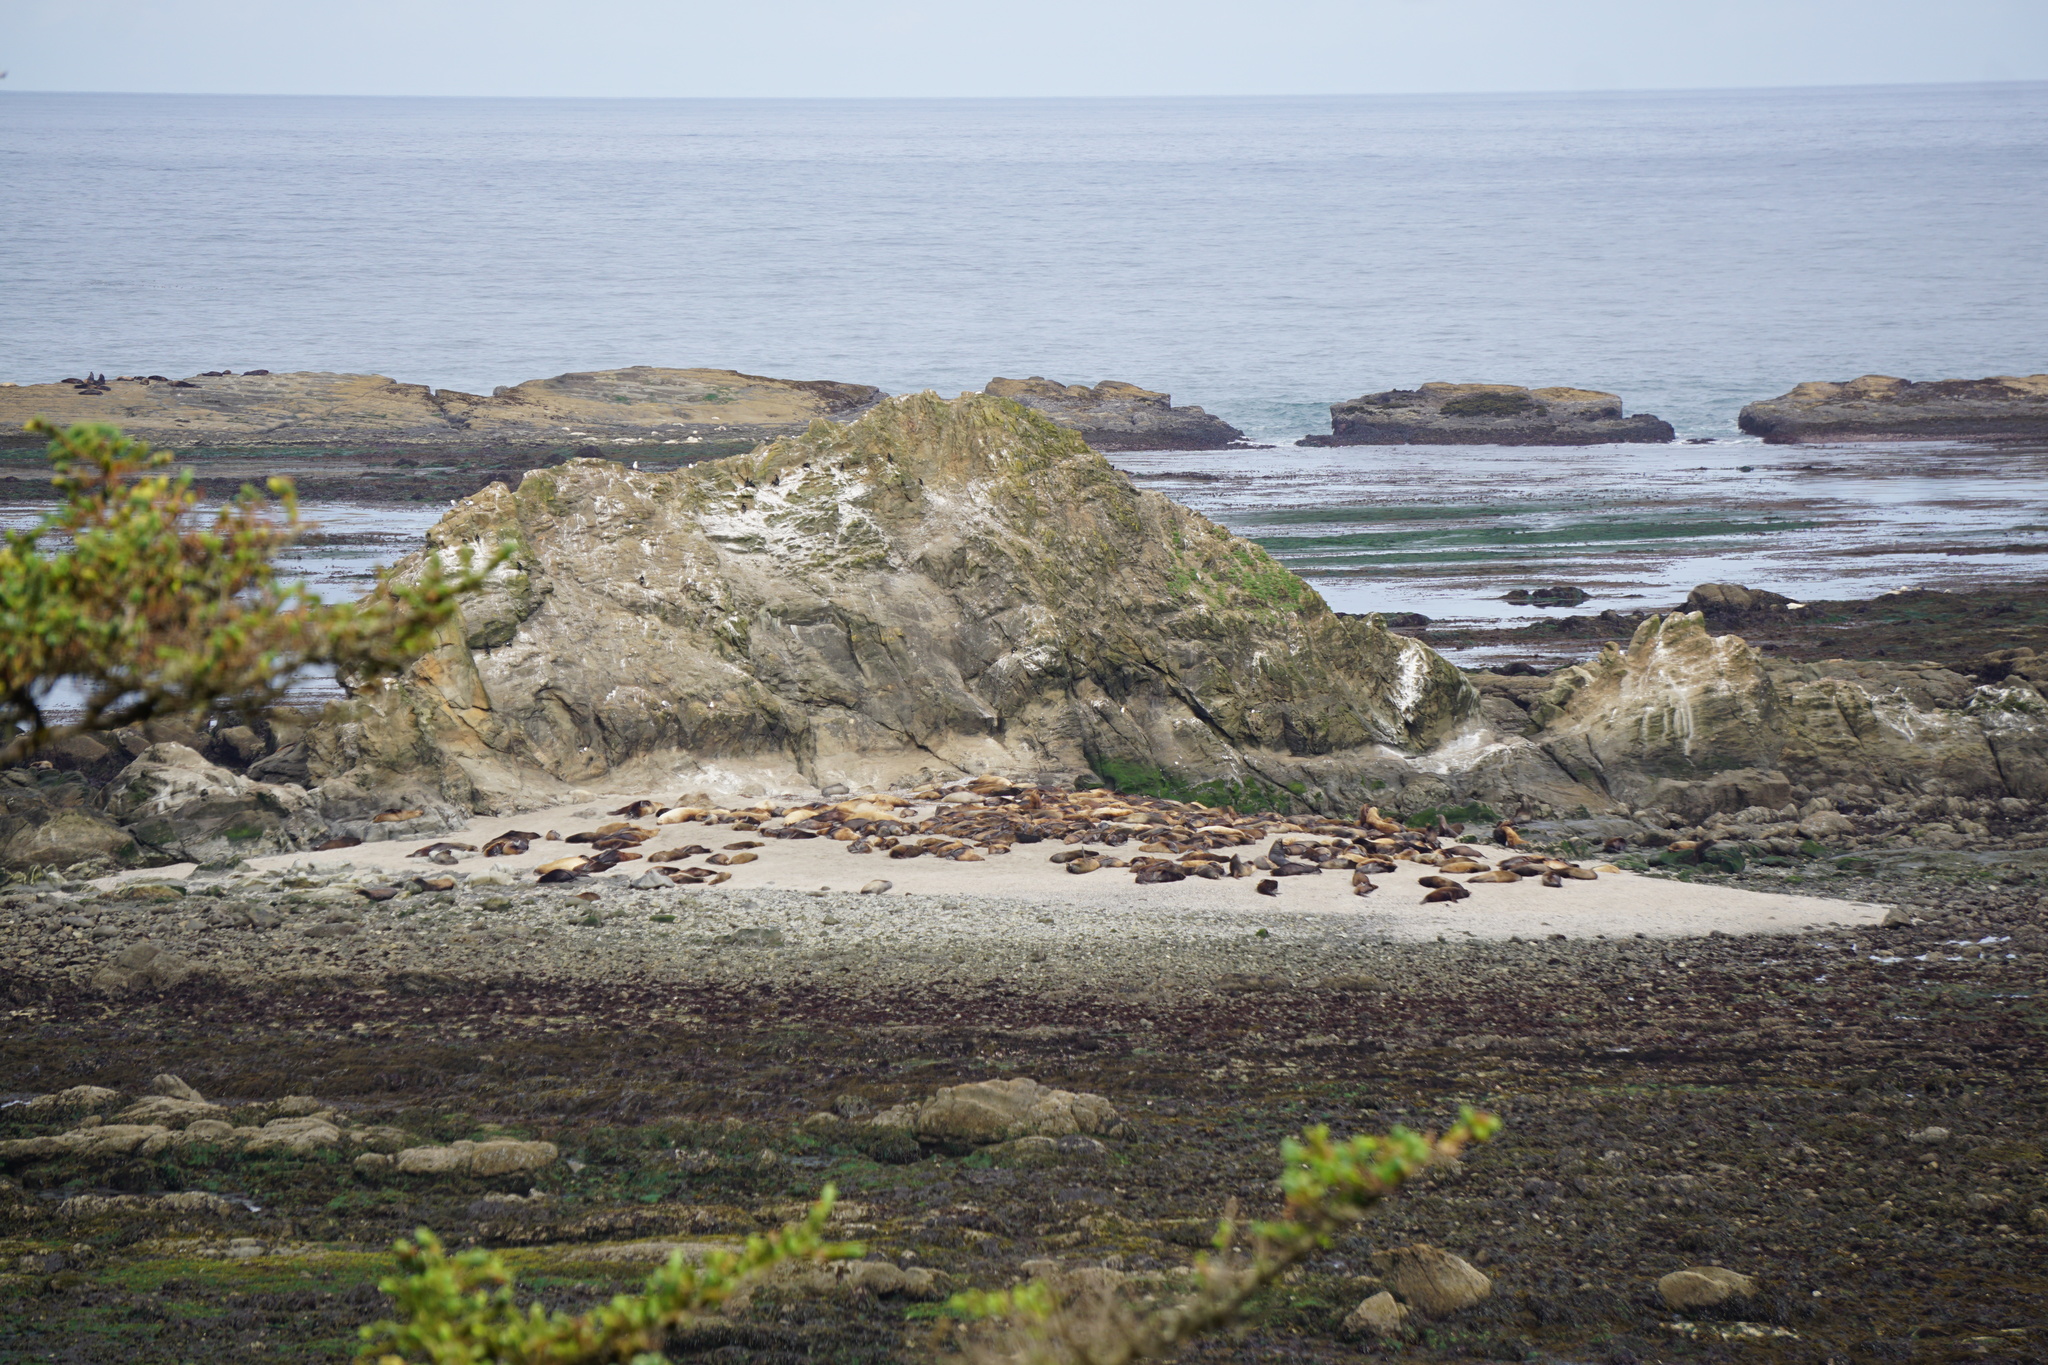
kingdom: Animalia
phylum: Chordata
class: Mammalia
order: Carnivora
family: Otariidae
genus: Eumetopias
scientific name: Eumetopias jubatus
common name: Steller sea lion
